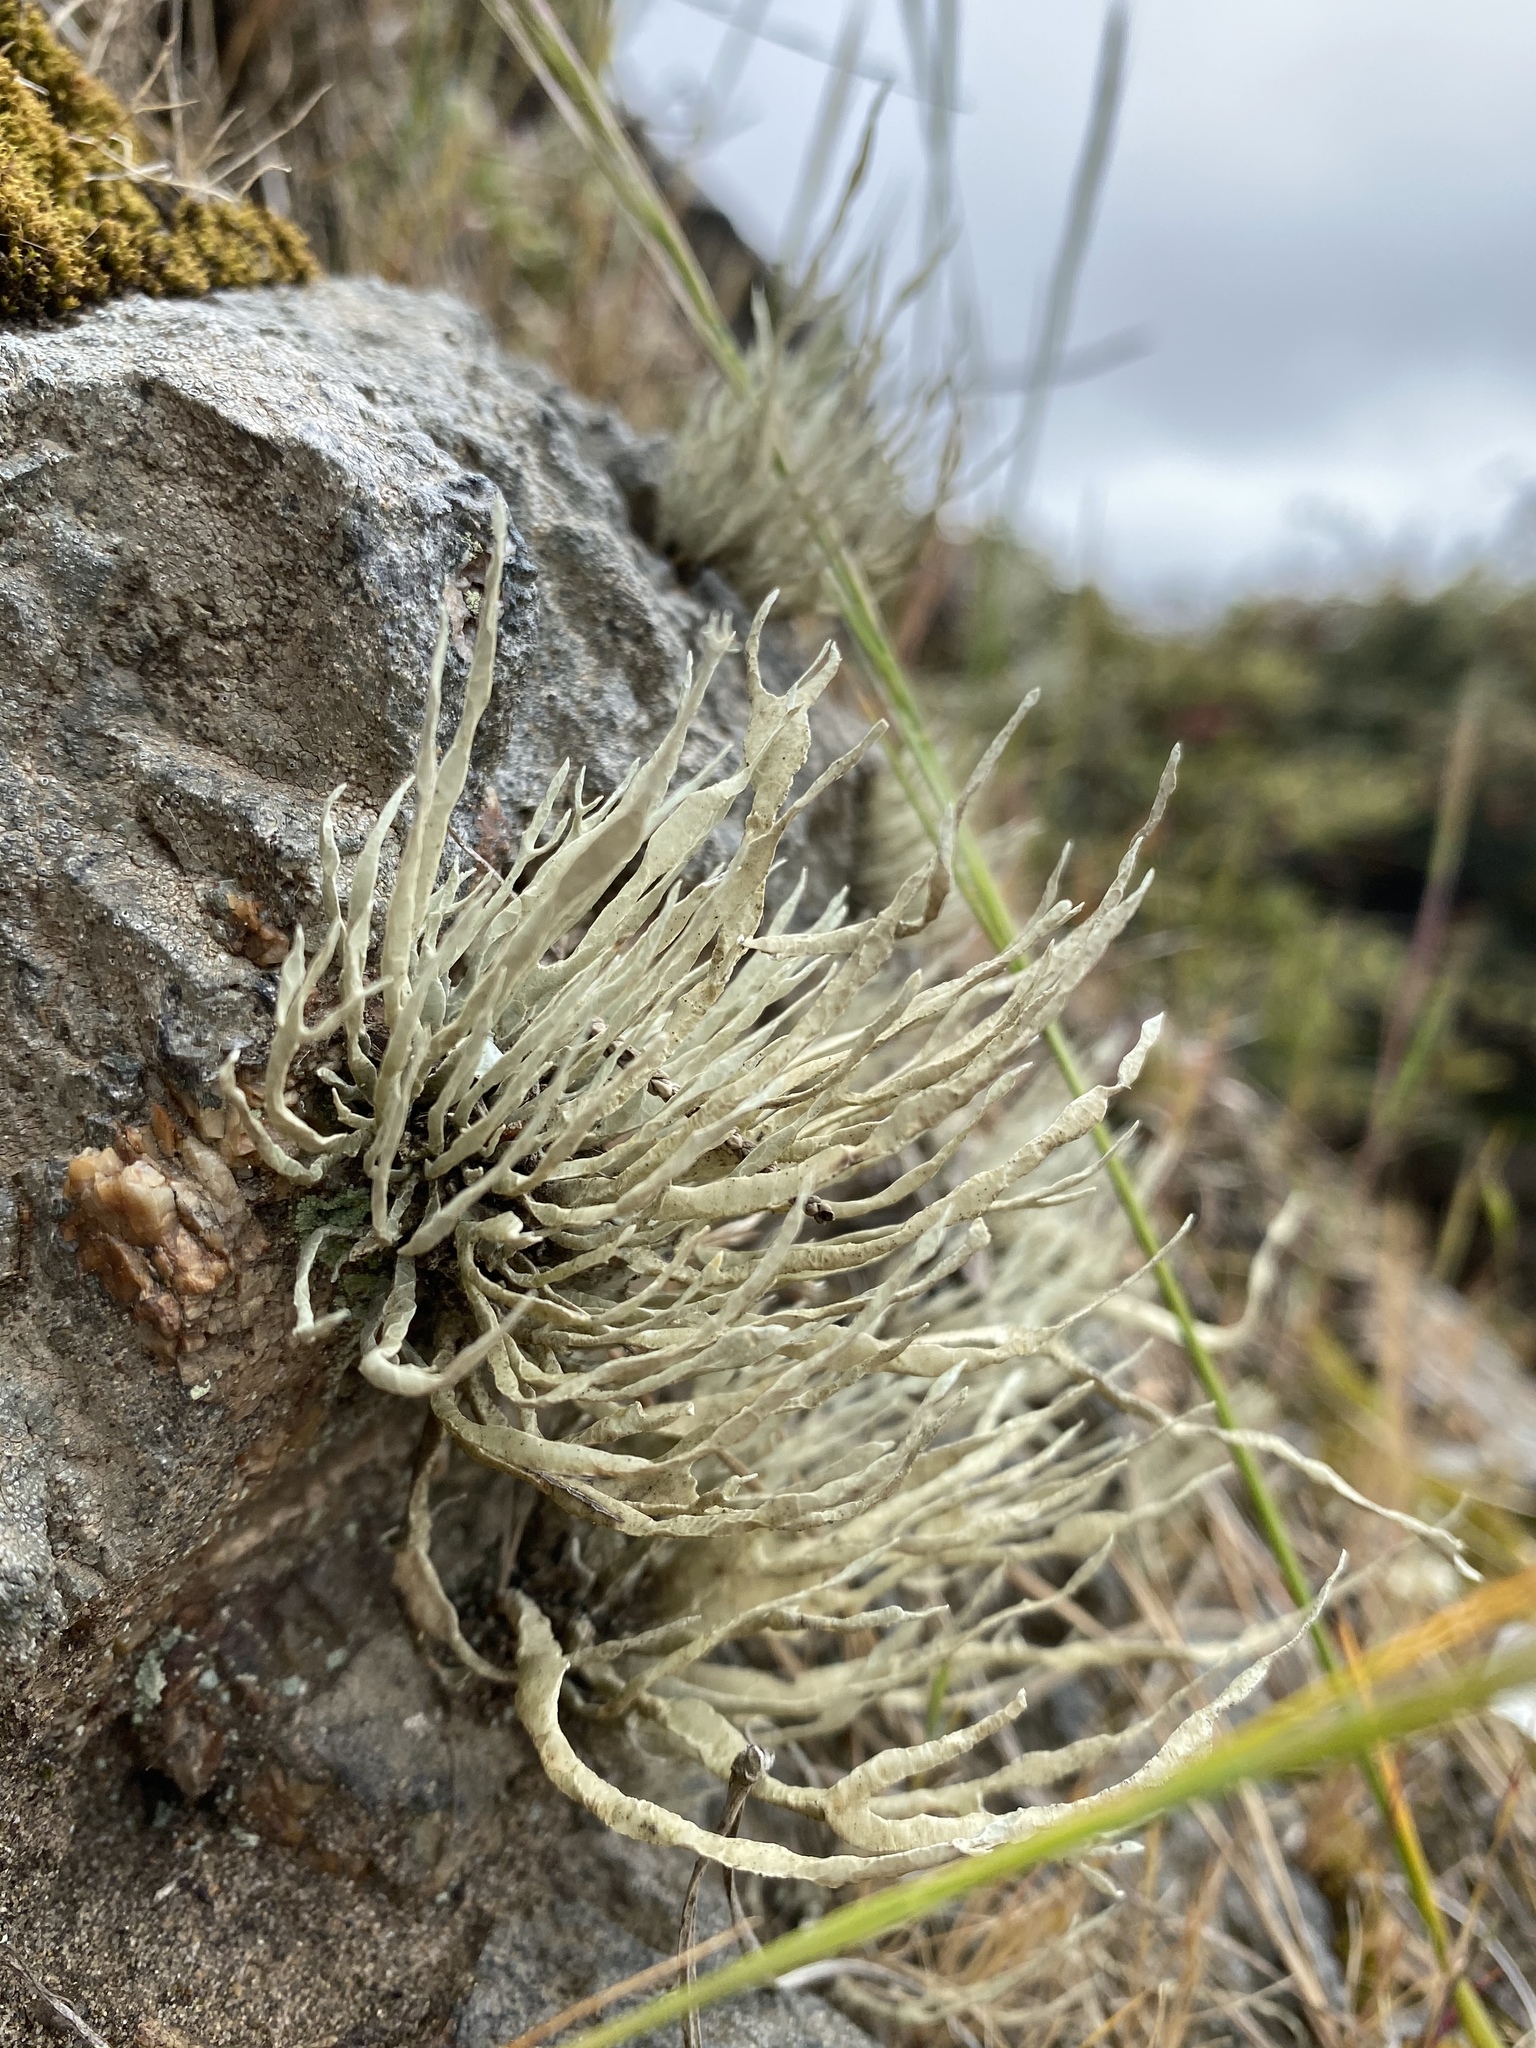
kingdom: Fungi
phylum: Ascomycota
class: Lecanoromycetes
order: Lecanorales
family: Ramalinaceae
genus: Niebla
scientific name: Niebla homalea
